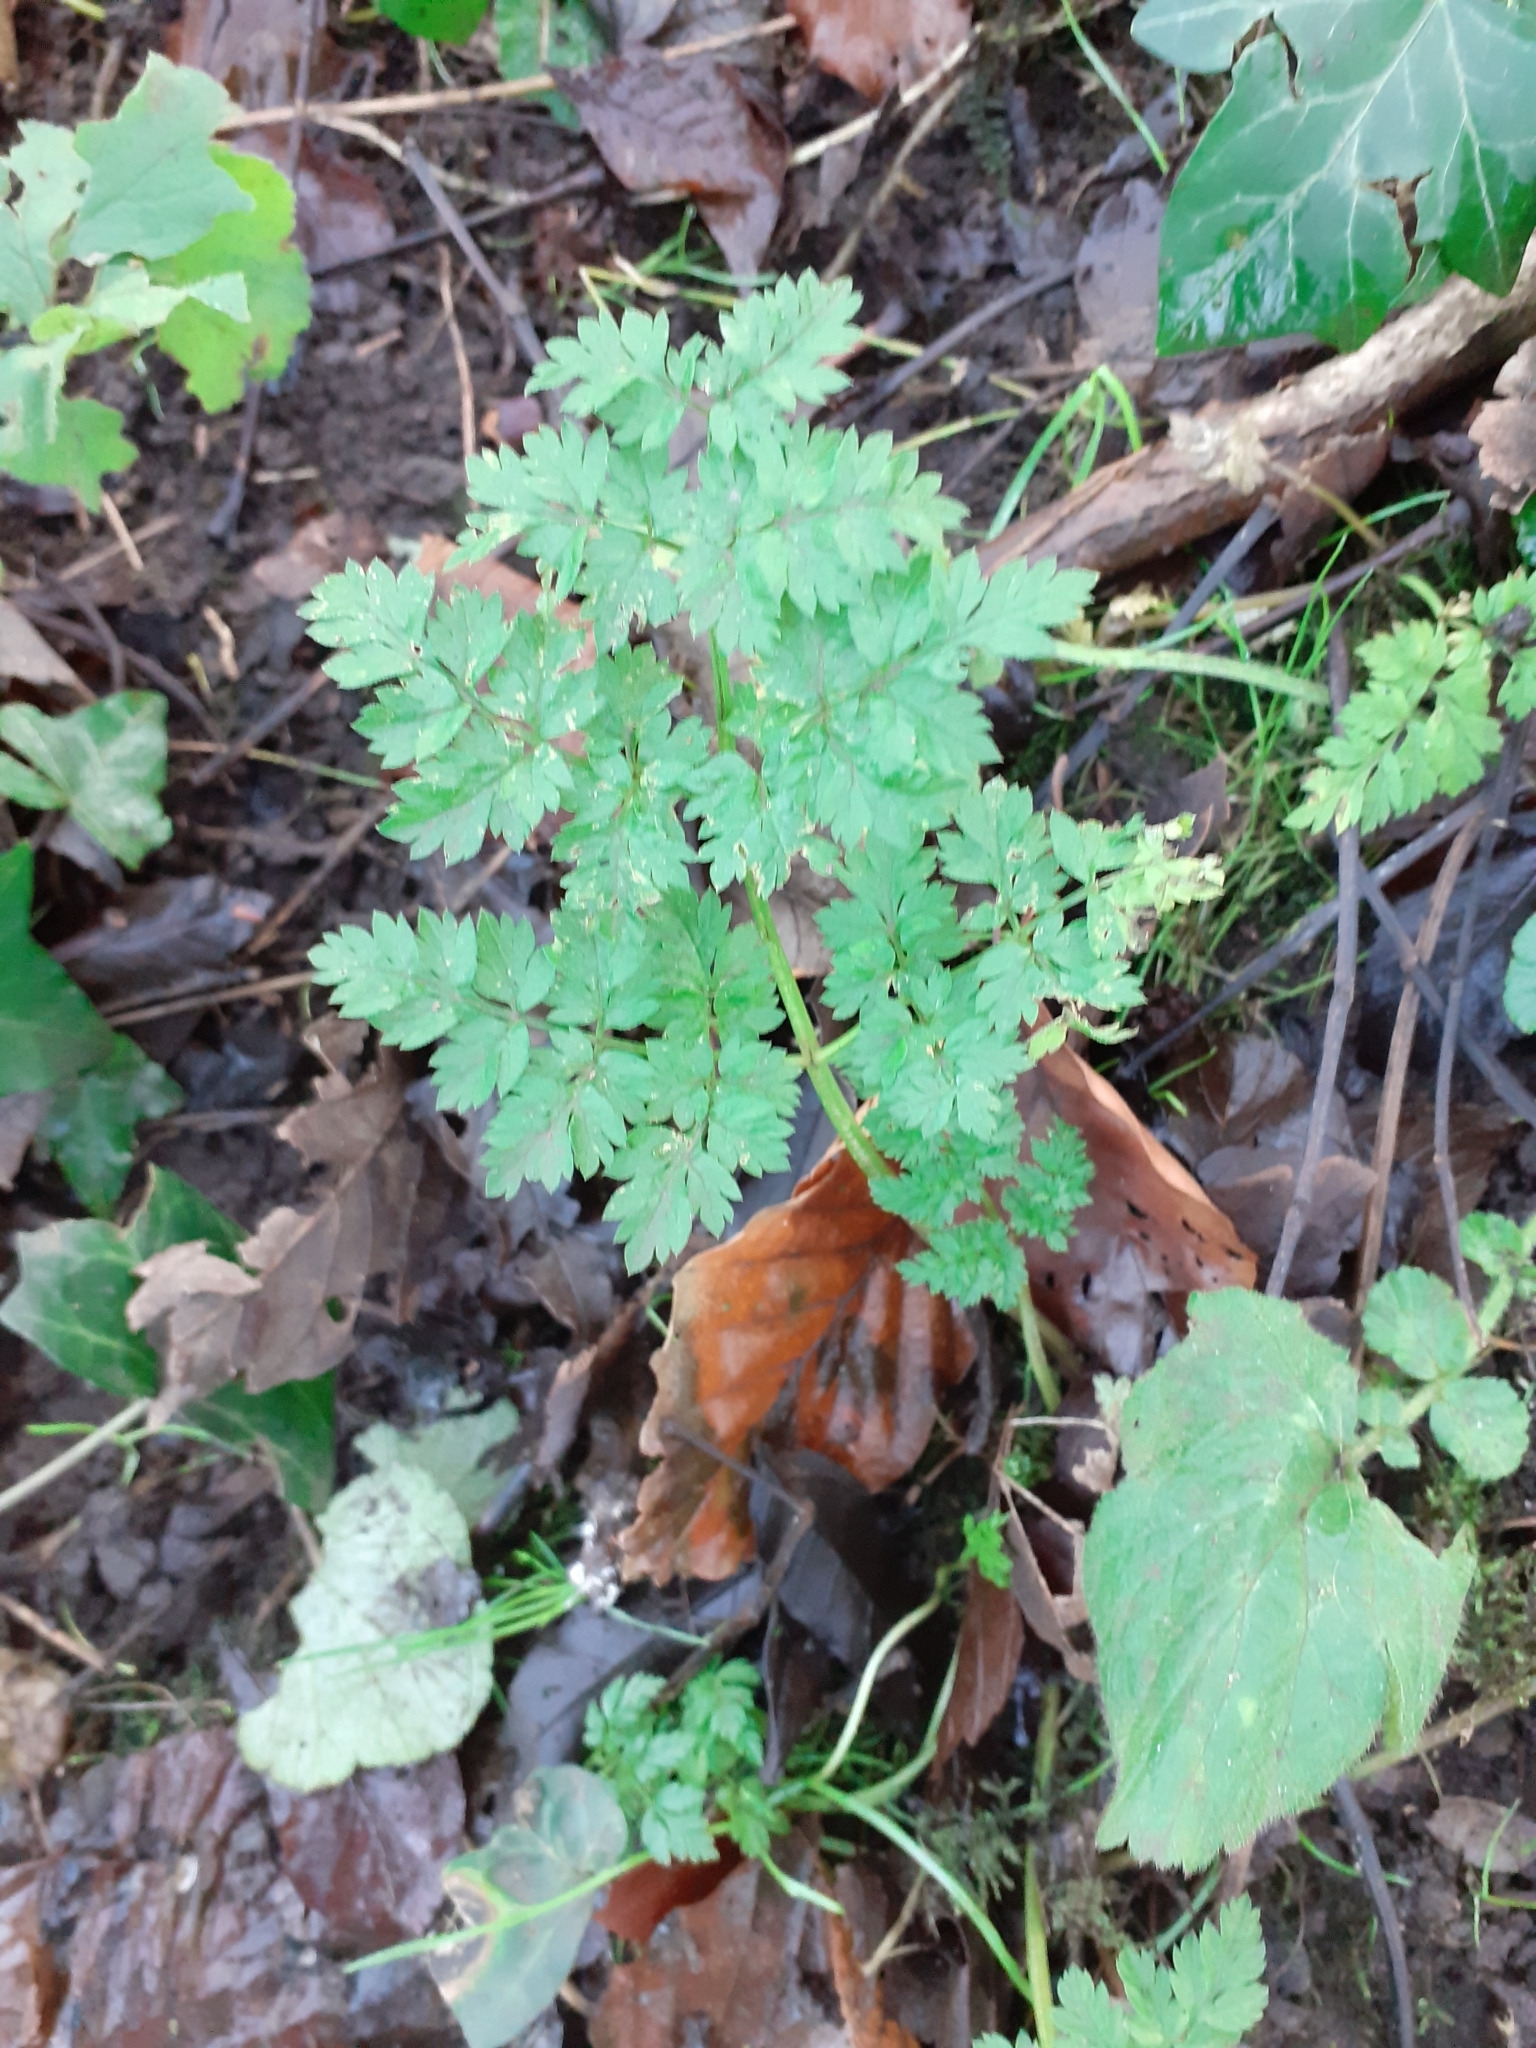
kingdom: Plantae
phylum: Tracheophyta
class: Magnoliopsida
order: Apiales
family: Apiaceae
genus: Anthriscus
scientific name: Anthriscus sylvestris
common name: Cow parsley
